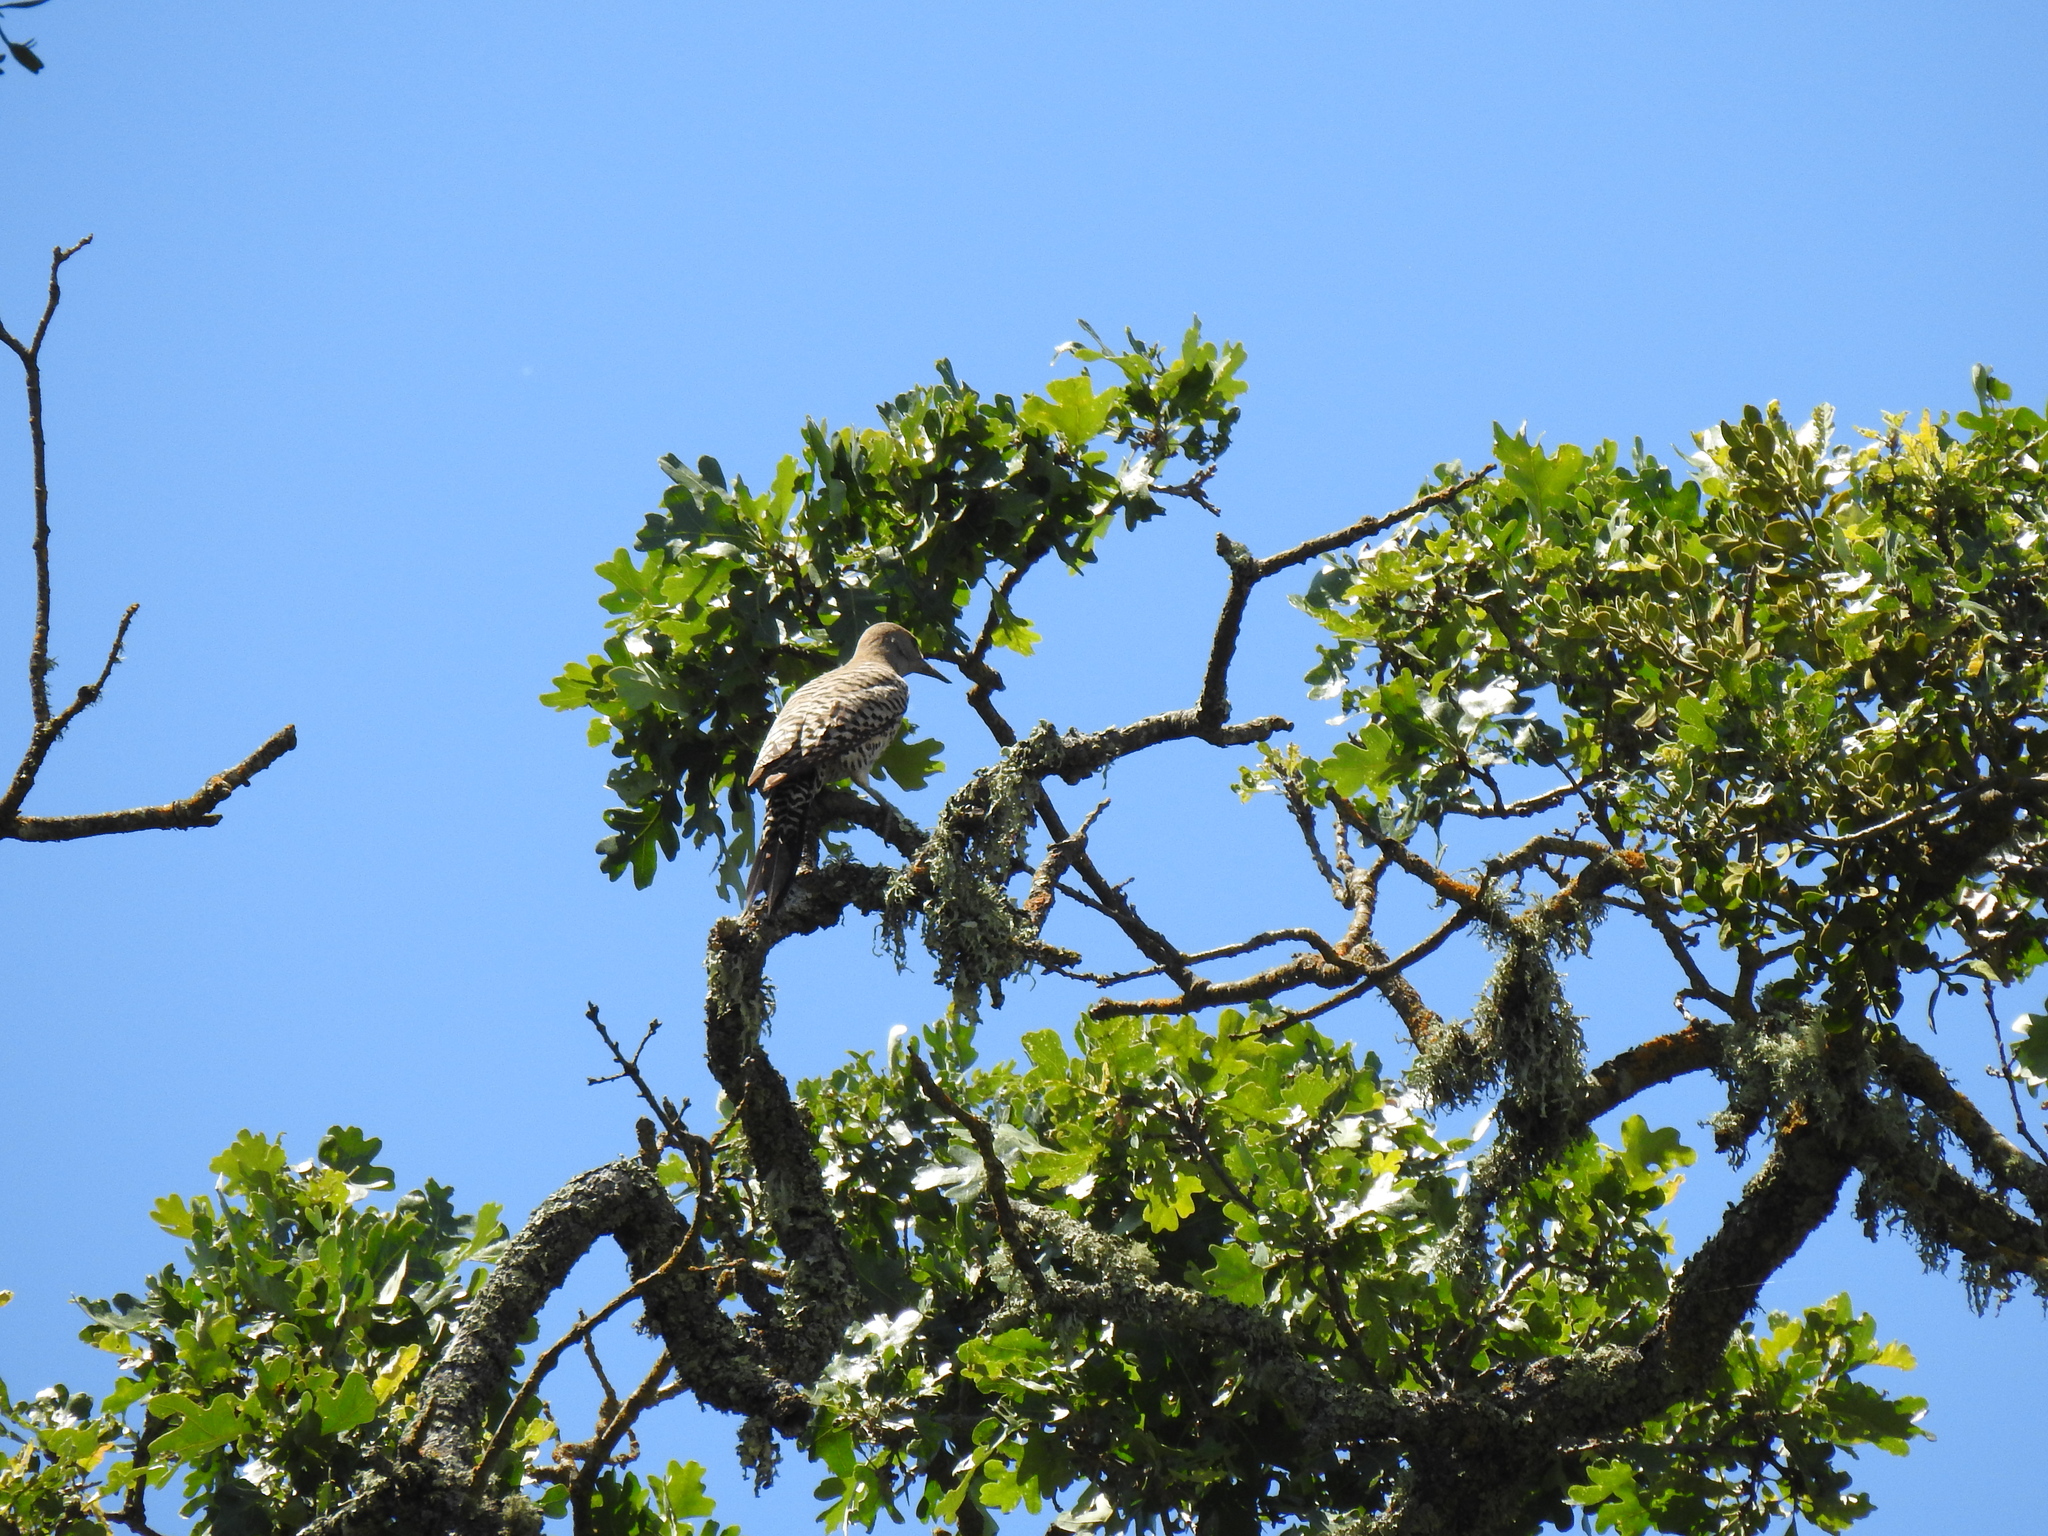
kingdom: Animalia
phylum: Chordata
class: Aves
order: Piciformes
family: Picidae
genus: Colaptes
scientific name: Colaptes auratus
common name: Northern flicker
